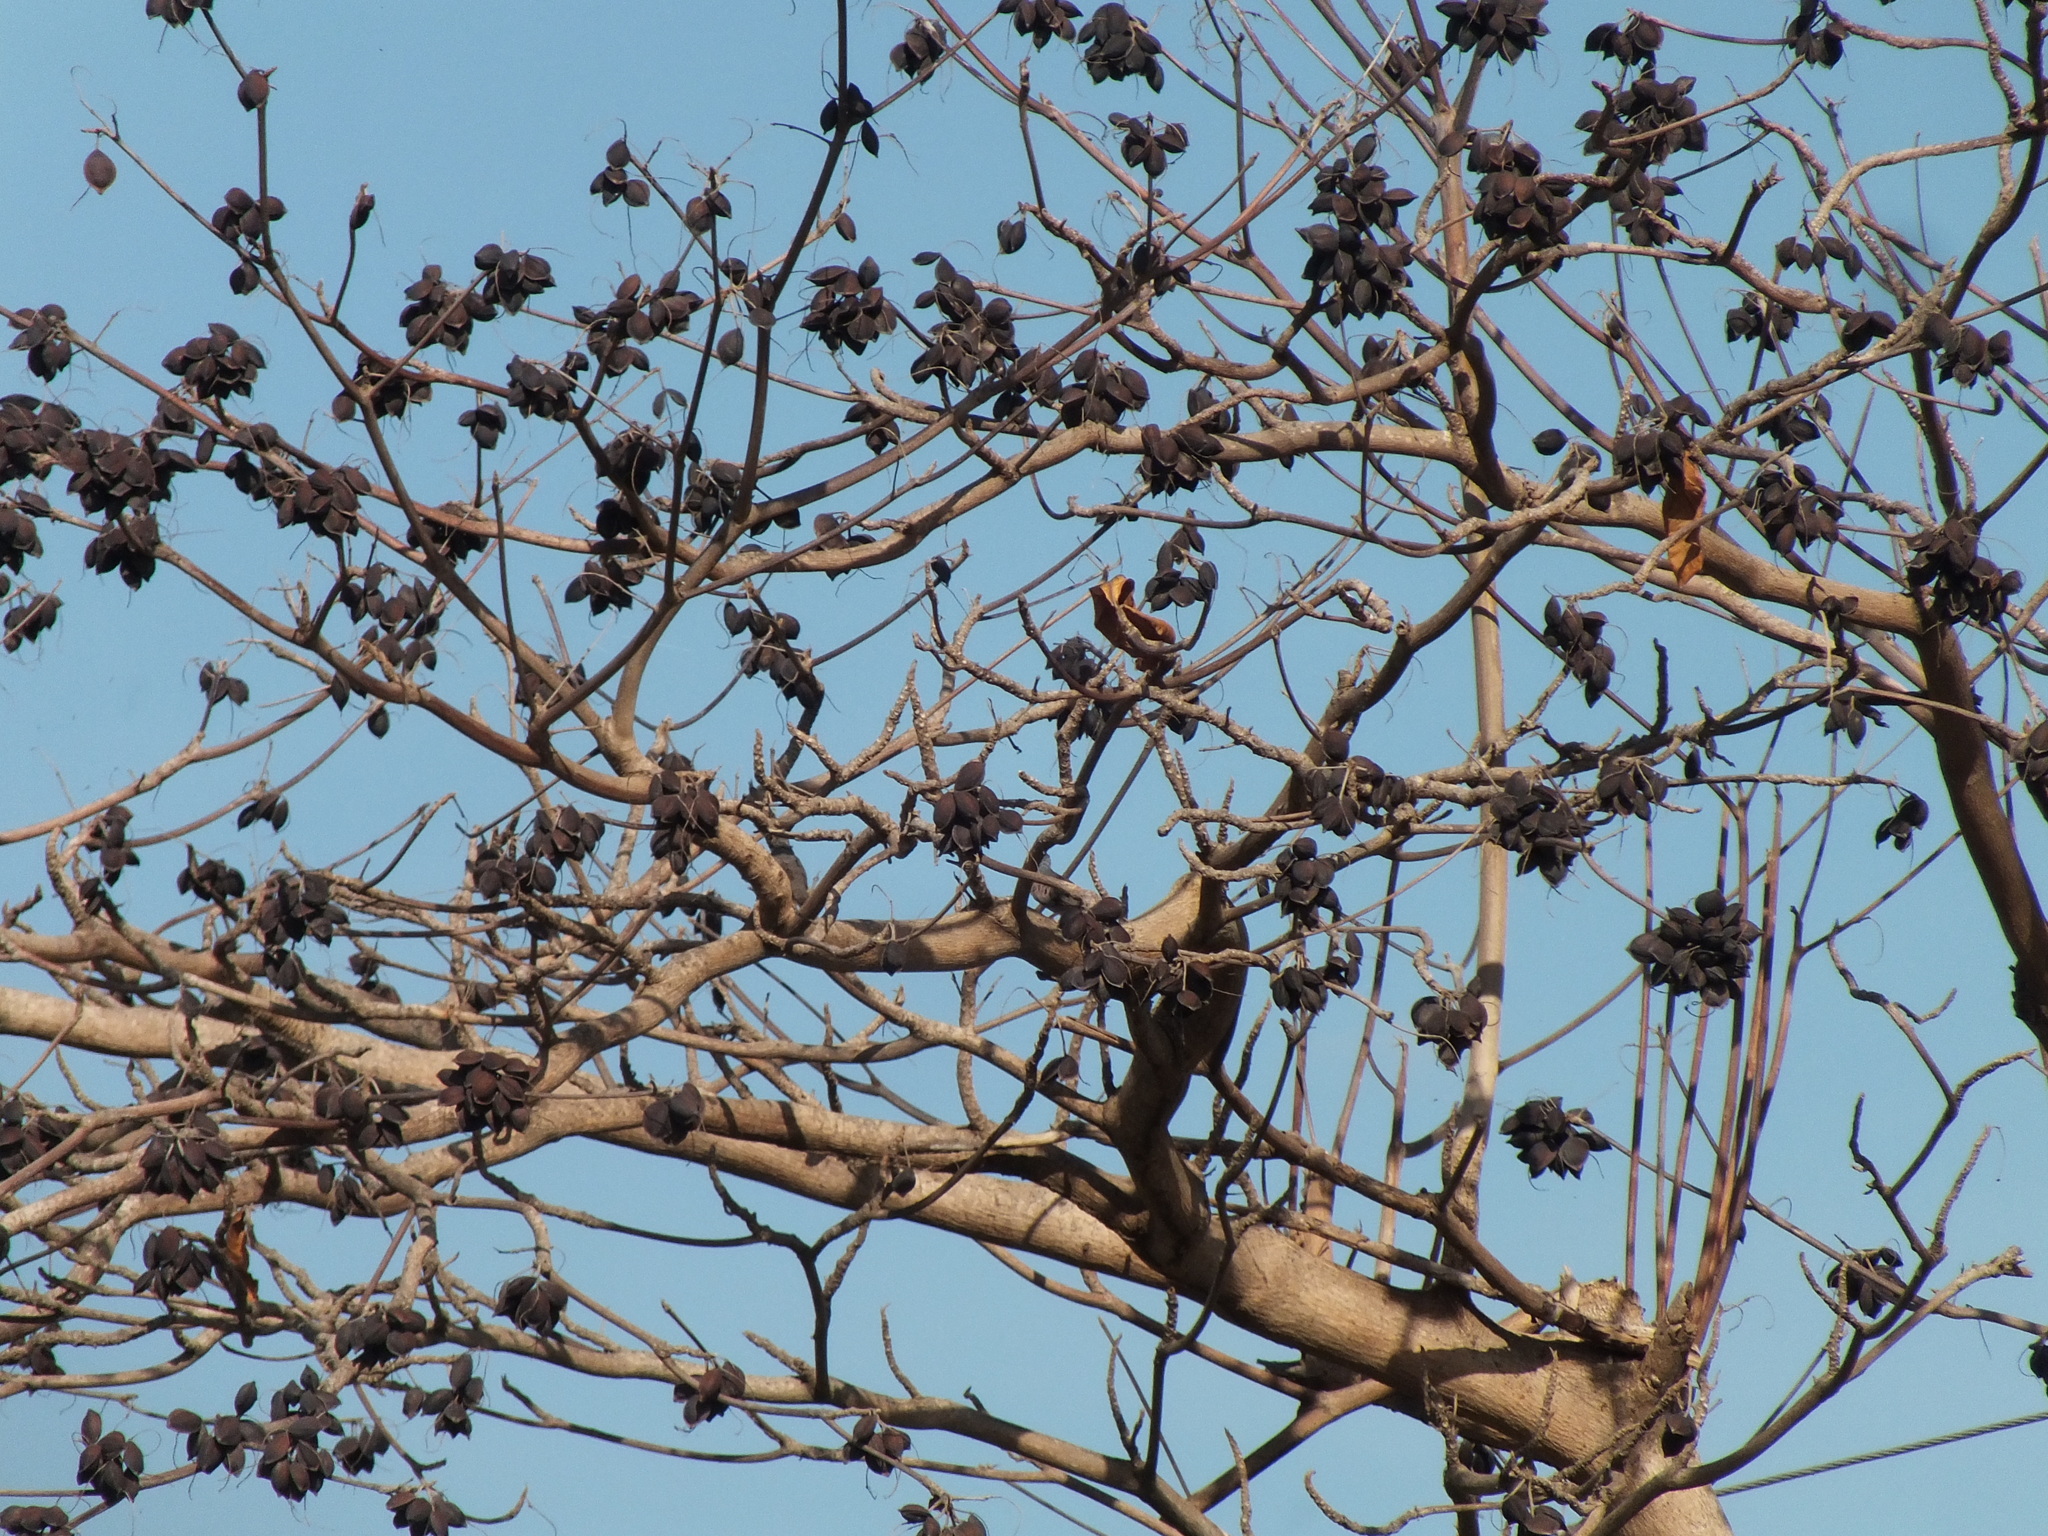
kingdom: Plantae
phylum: Tracheophyta
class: Magnoliopsida
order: Myrtales
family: Combretaceae
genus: Terminalia
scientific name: Terminalia catappa
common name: Tropical almond
